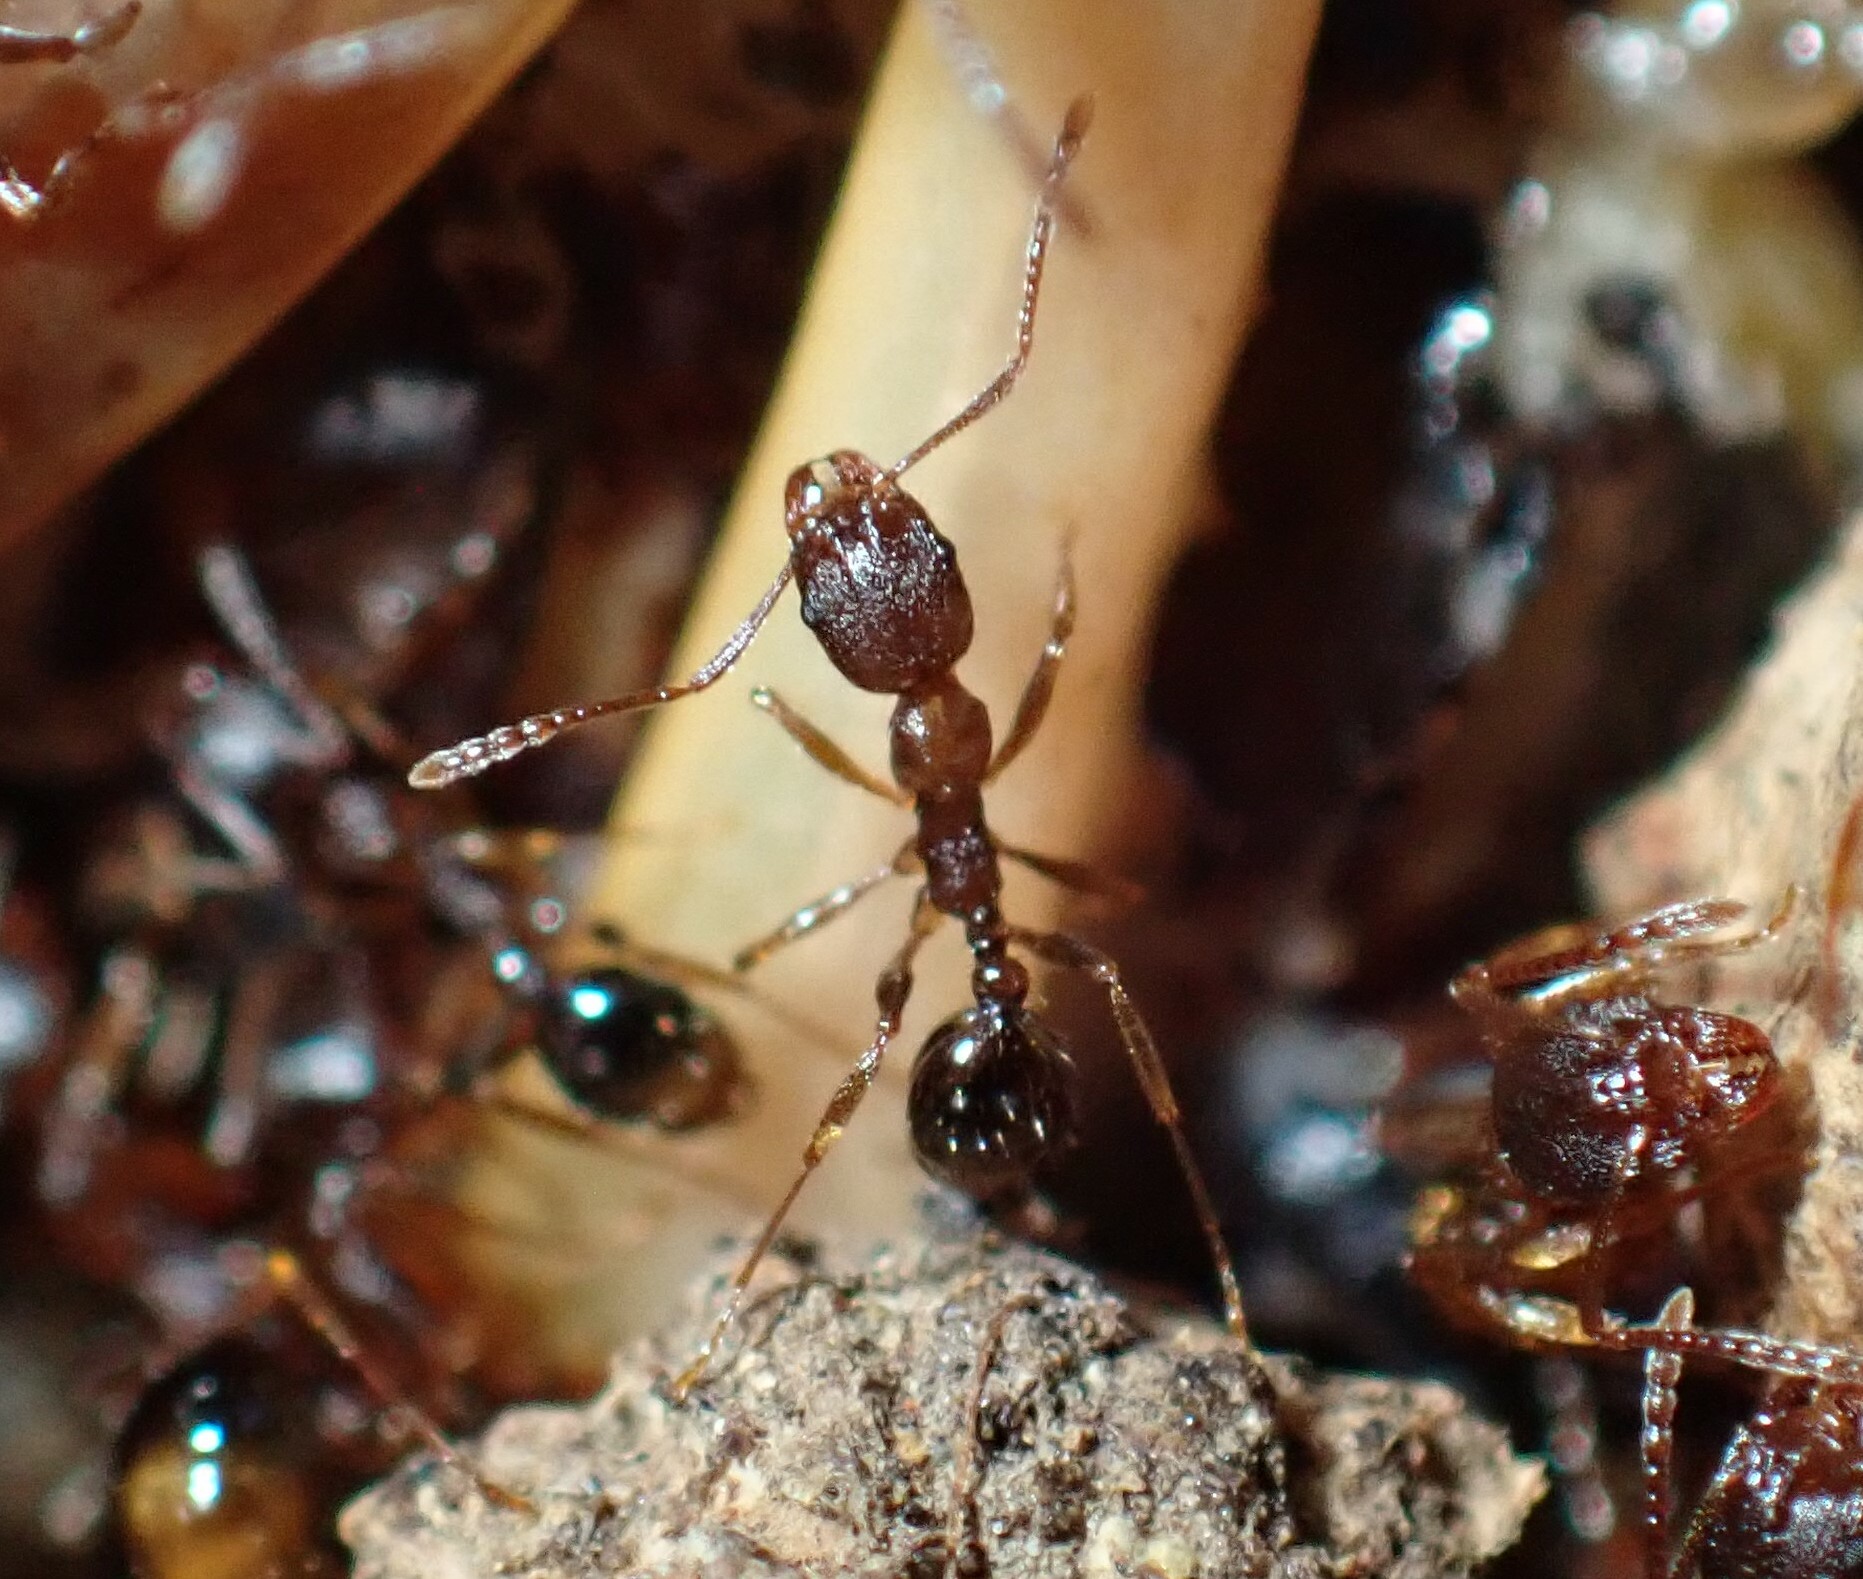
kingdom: Animalia
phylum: Arthropoda
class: Insecta
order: Hymenoptera
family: Formicidae
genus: Aphaenogaster
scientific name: Aphaenogaster occidentalis
